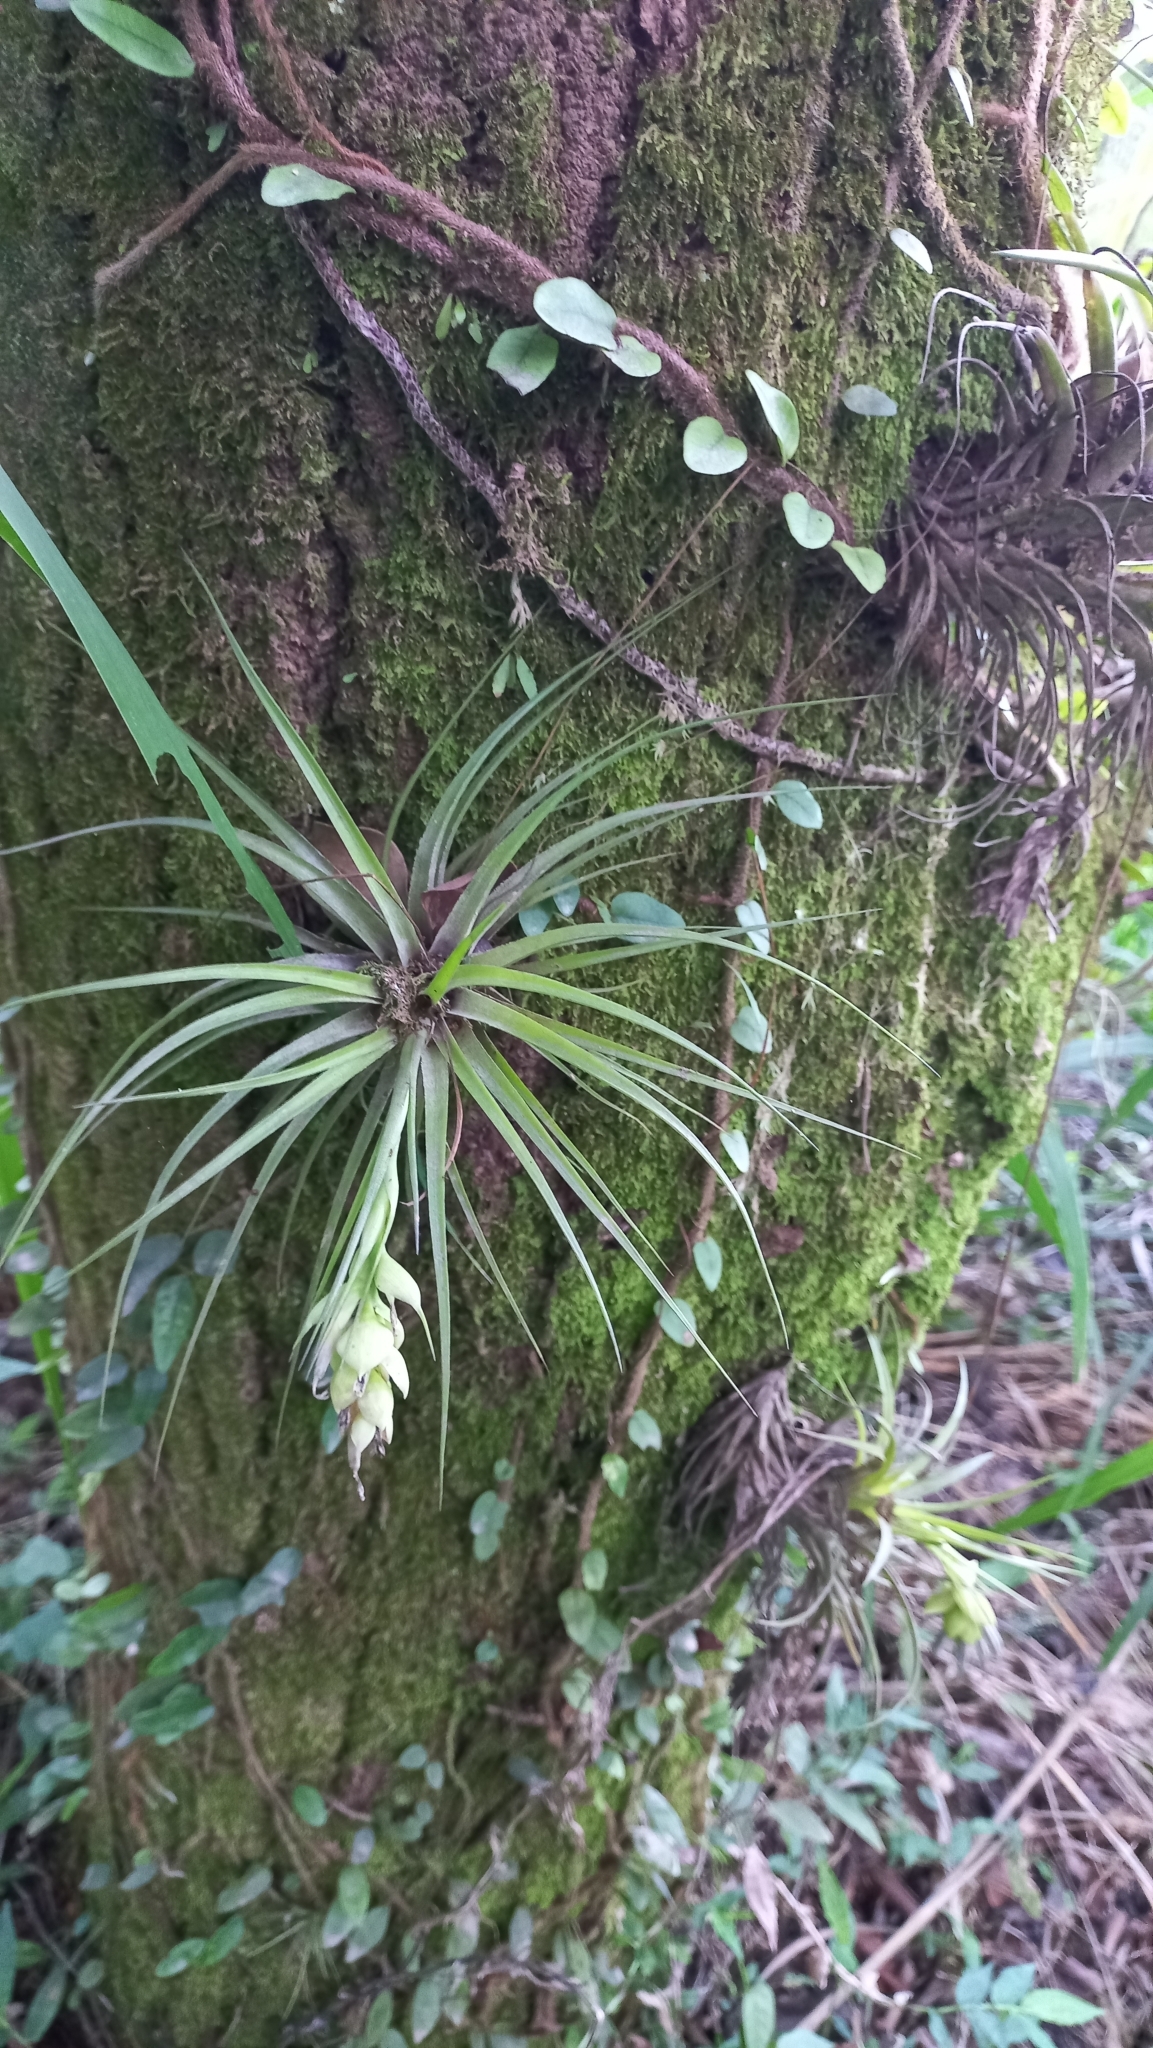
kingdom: Plantae
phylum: Tracheophyta
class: Liliopsida
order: Poales
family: Bromeliaceae
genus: Tillandsia
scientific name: Tillandsia stricta
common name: Airplant
